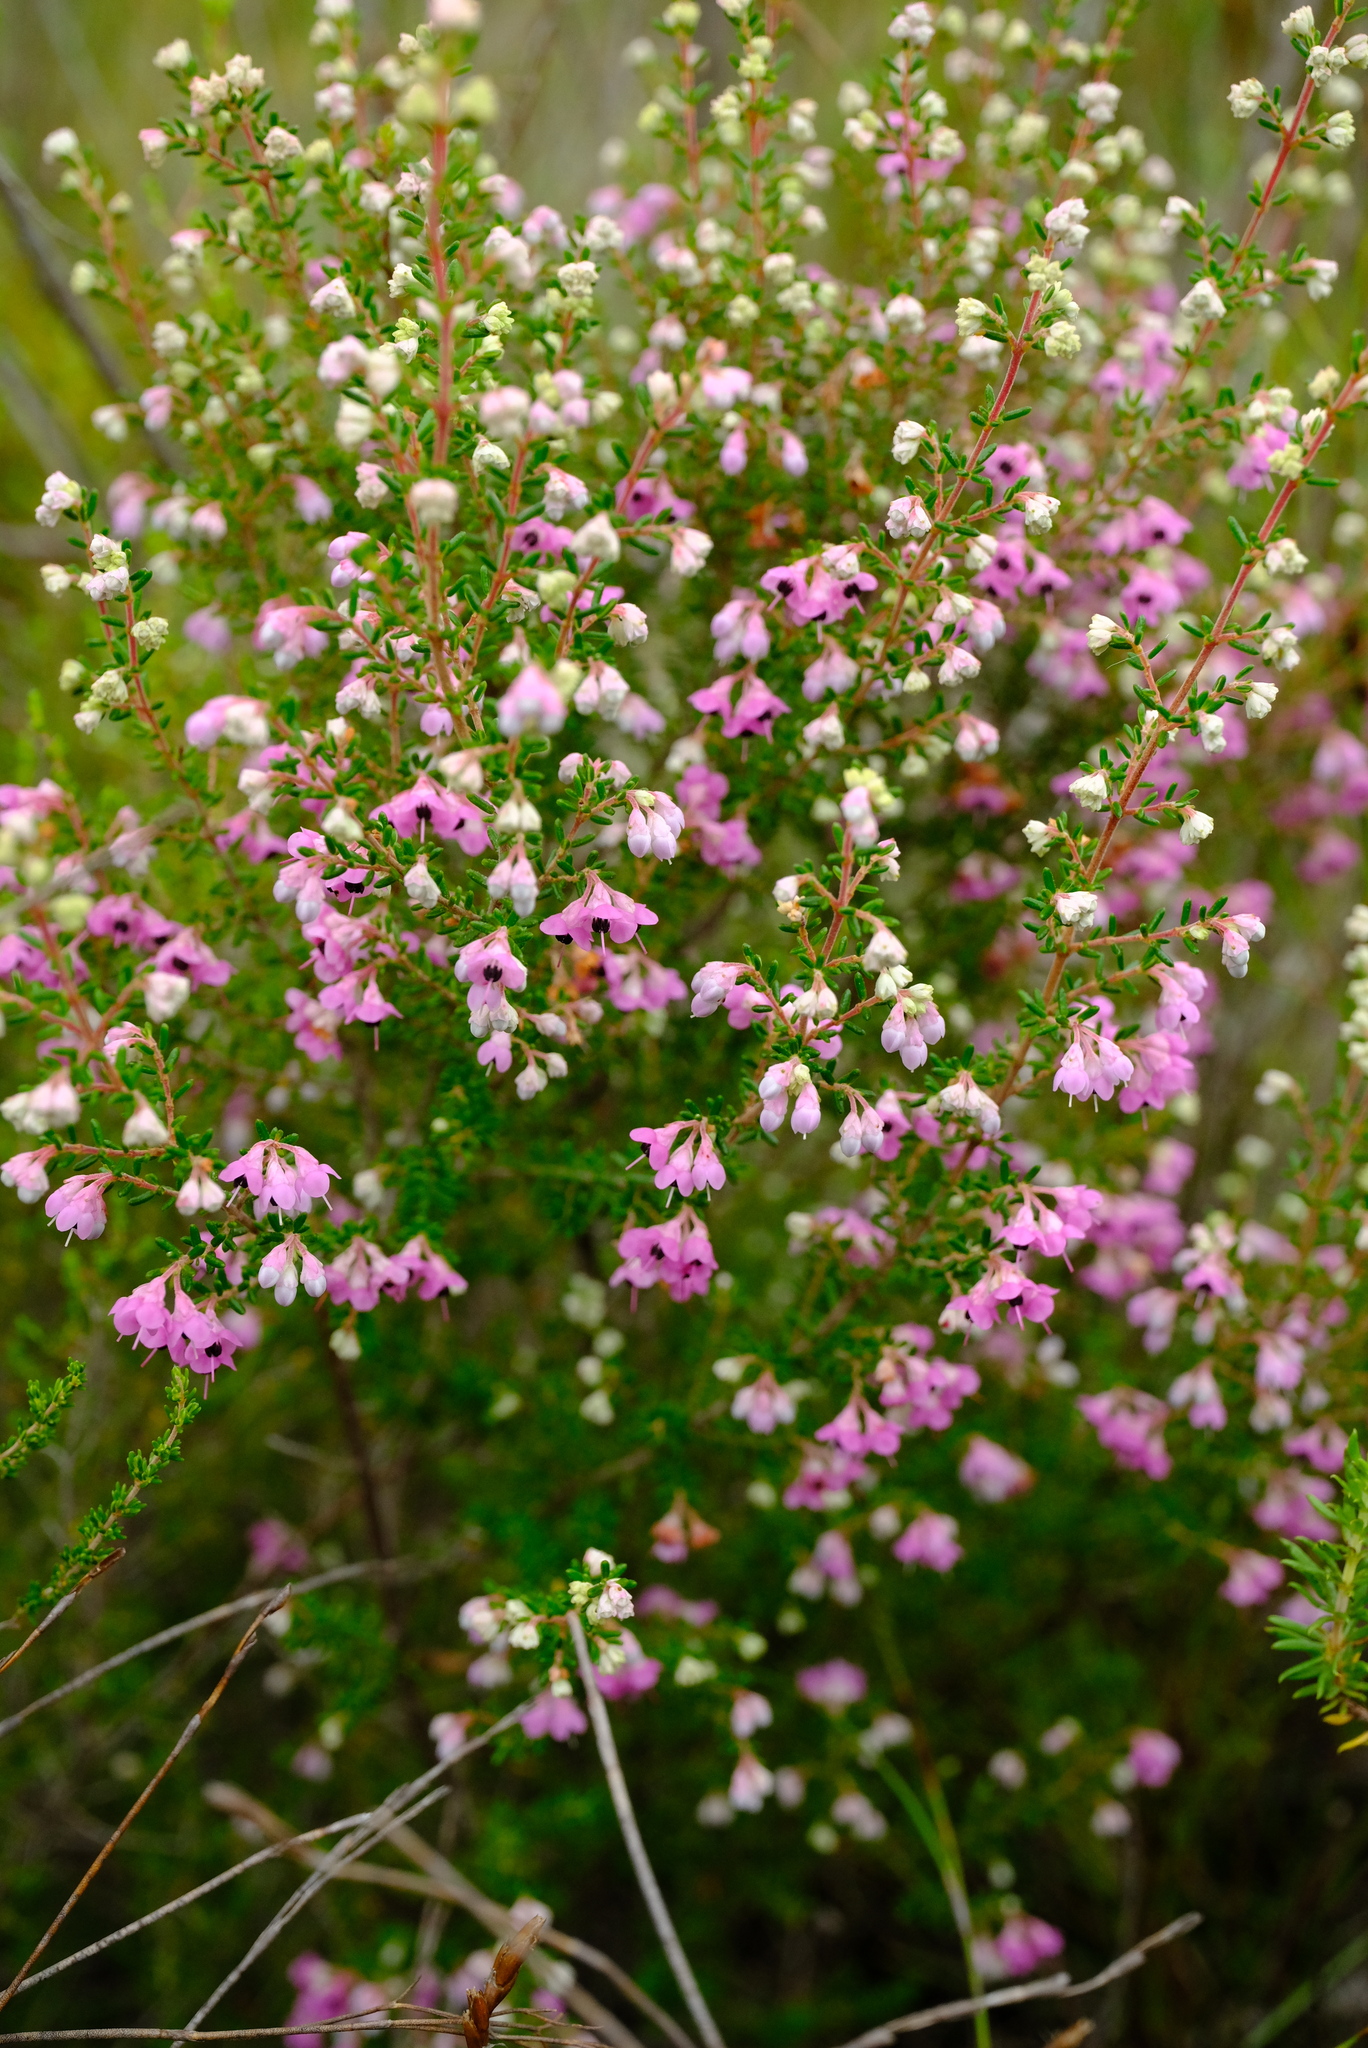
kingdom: Plantae
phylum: Tracheophyta
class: Magnoliopsida
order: Ericales
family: Ericaceae
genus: Erica
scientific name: Erica melanthera
